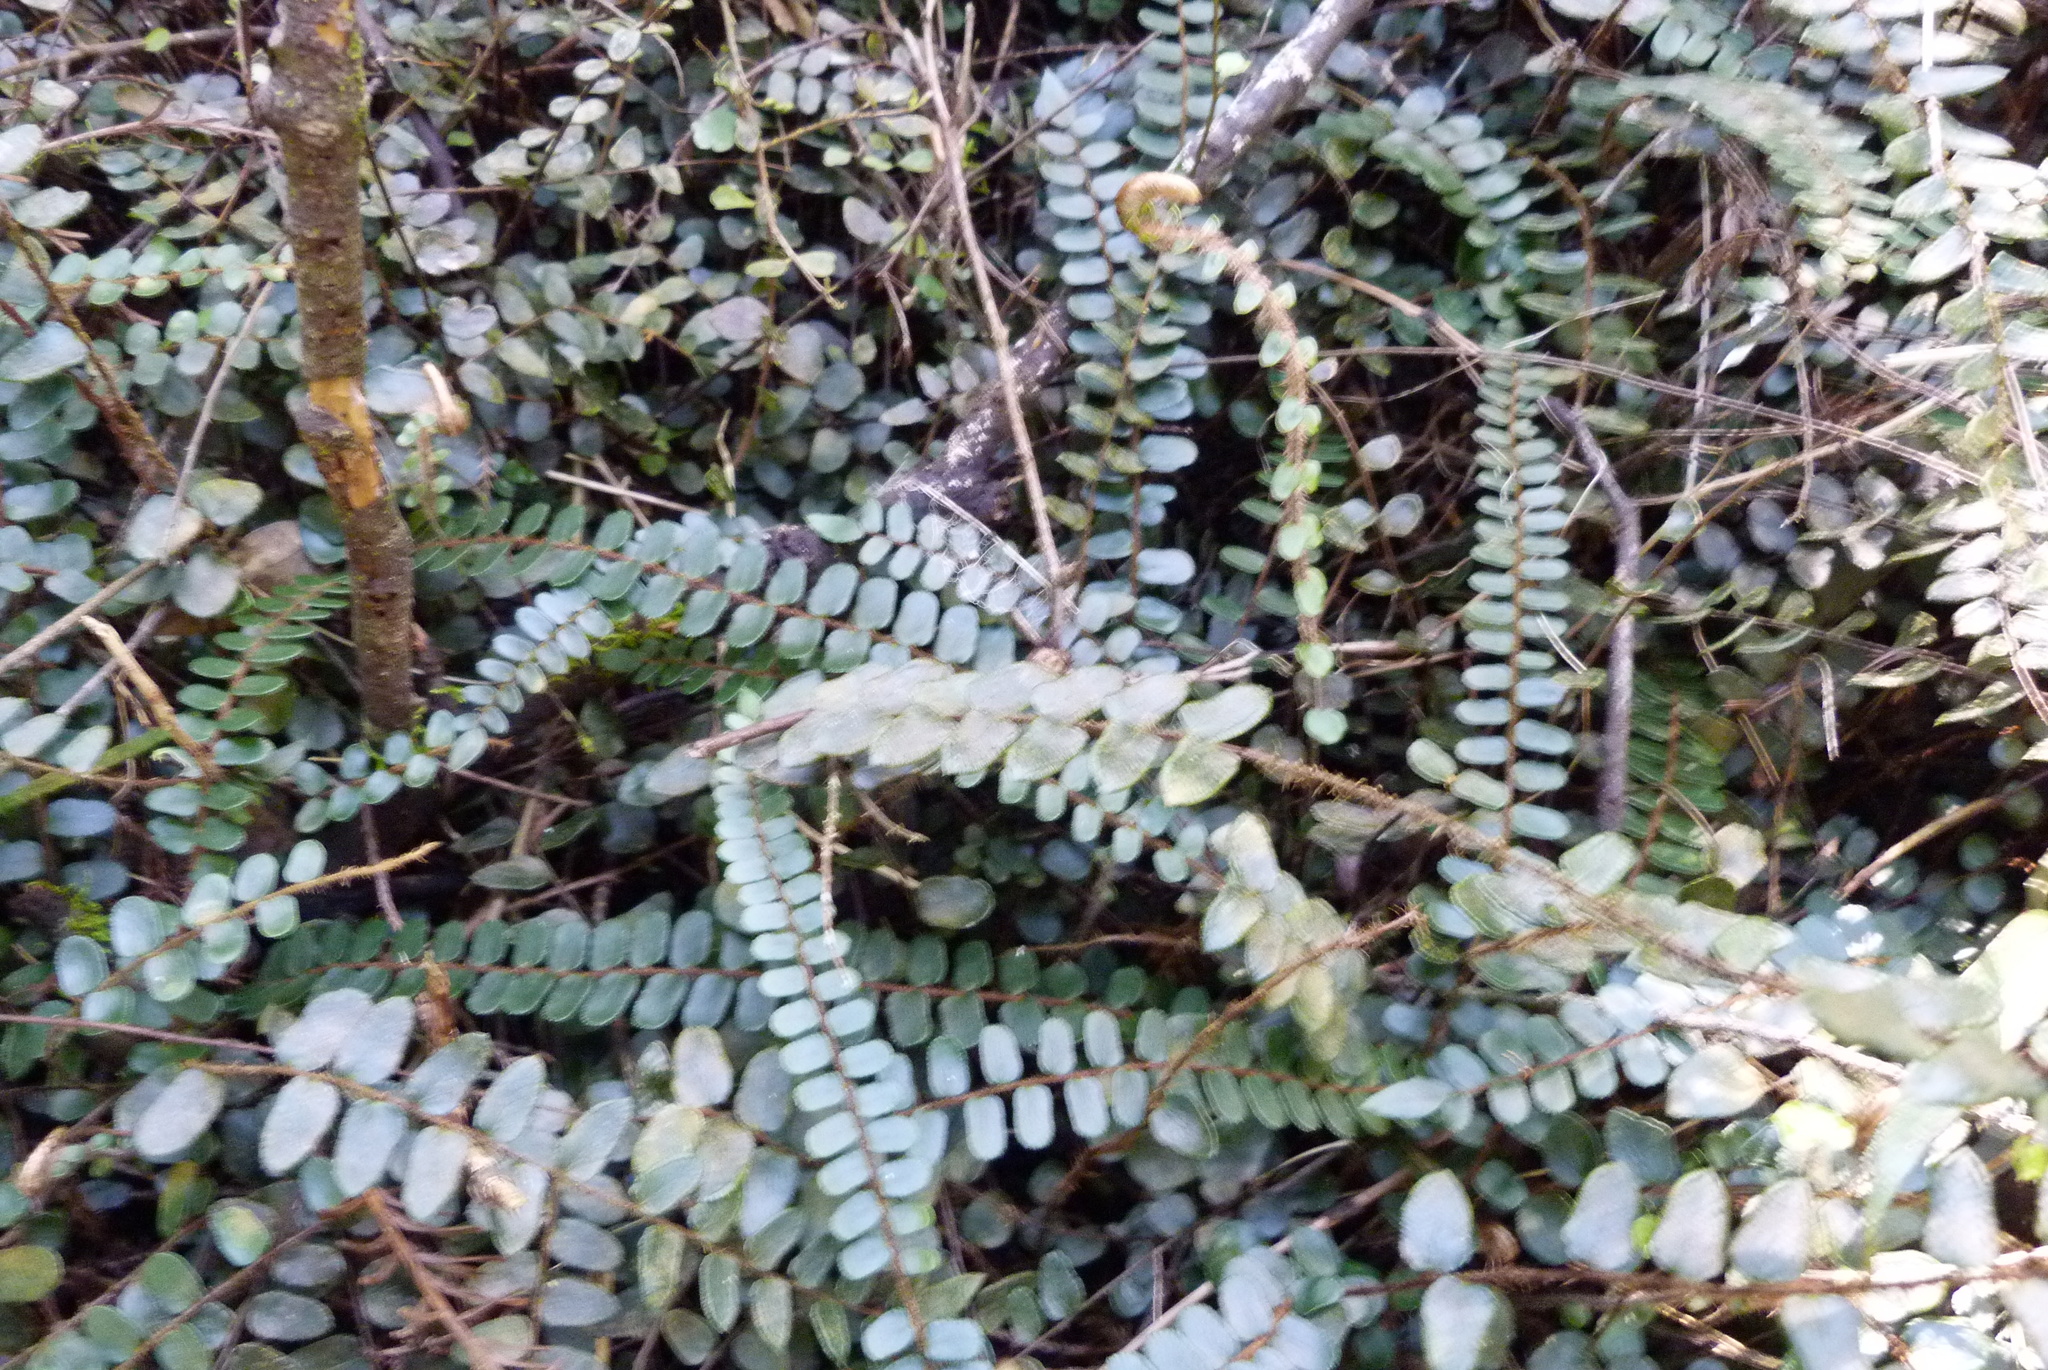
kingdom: Plantae
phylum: Tracheophyta
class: Polypodiopsida
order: Polypodiales
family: Pteridaceae
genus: Pellaea
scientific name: Pellaea rotundifolia
